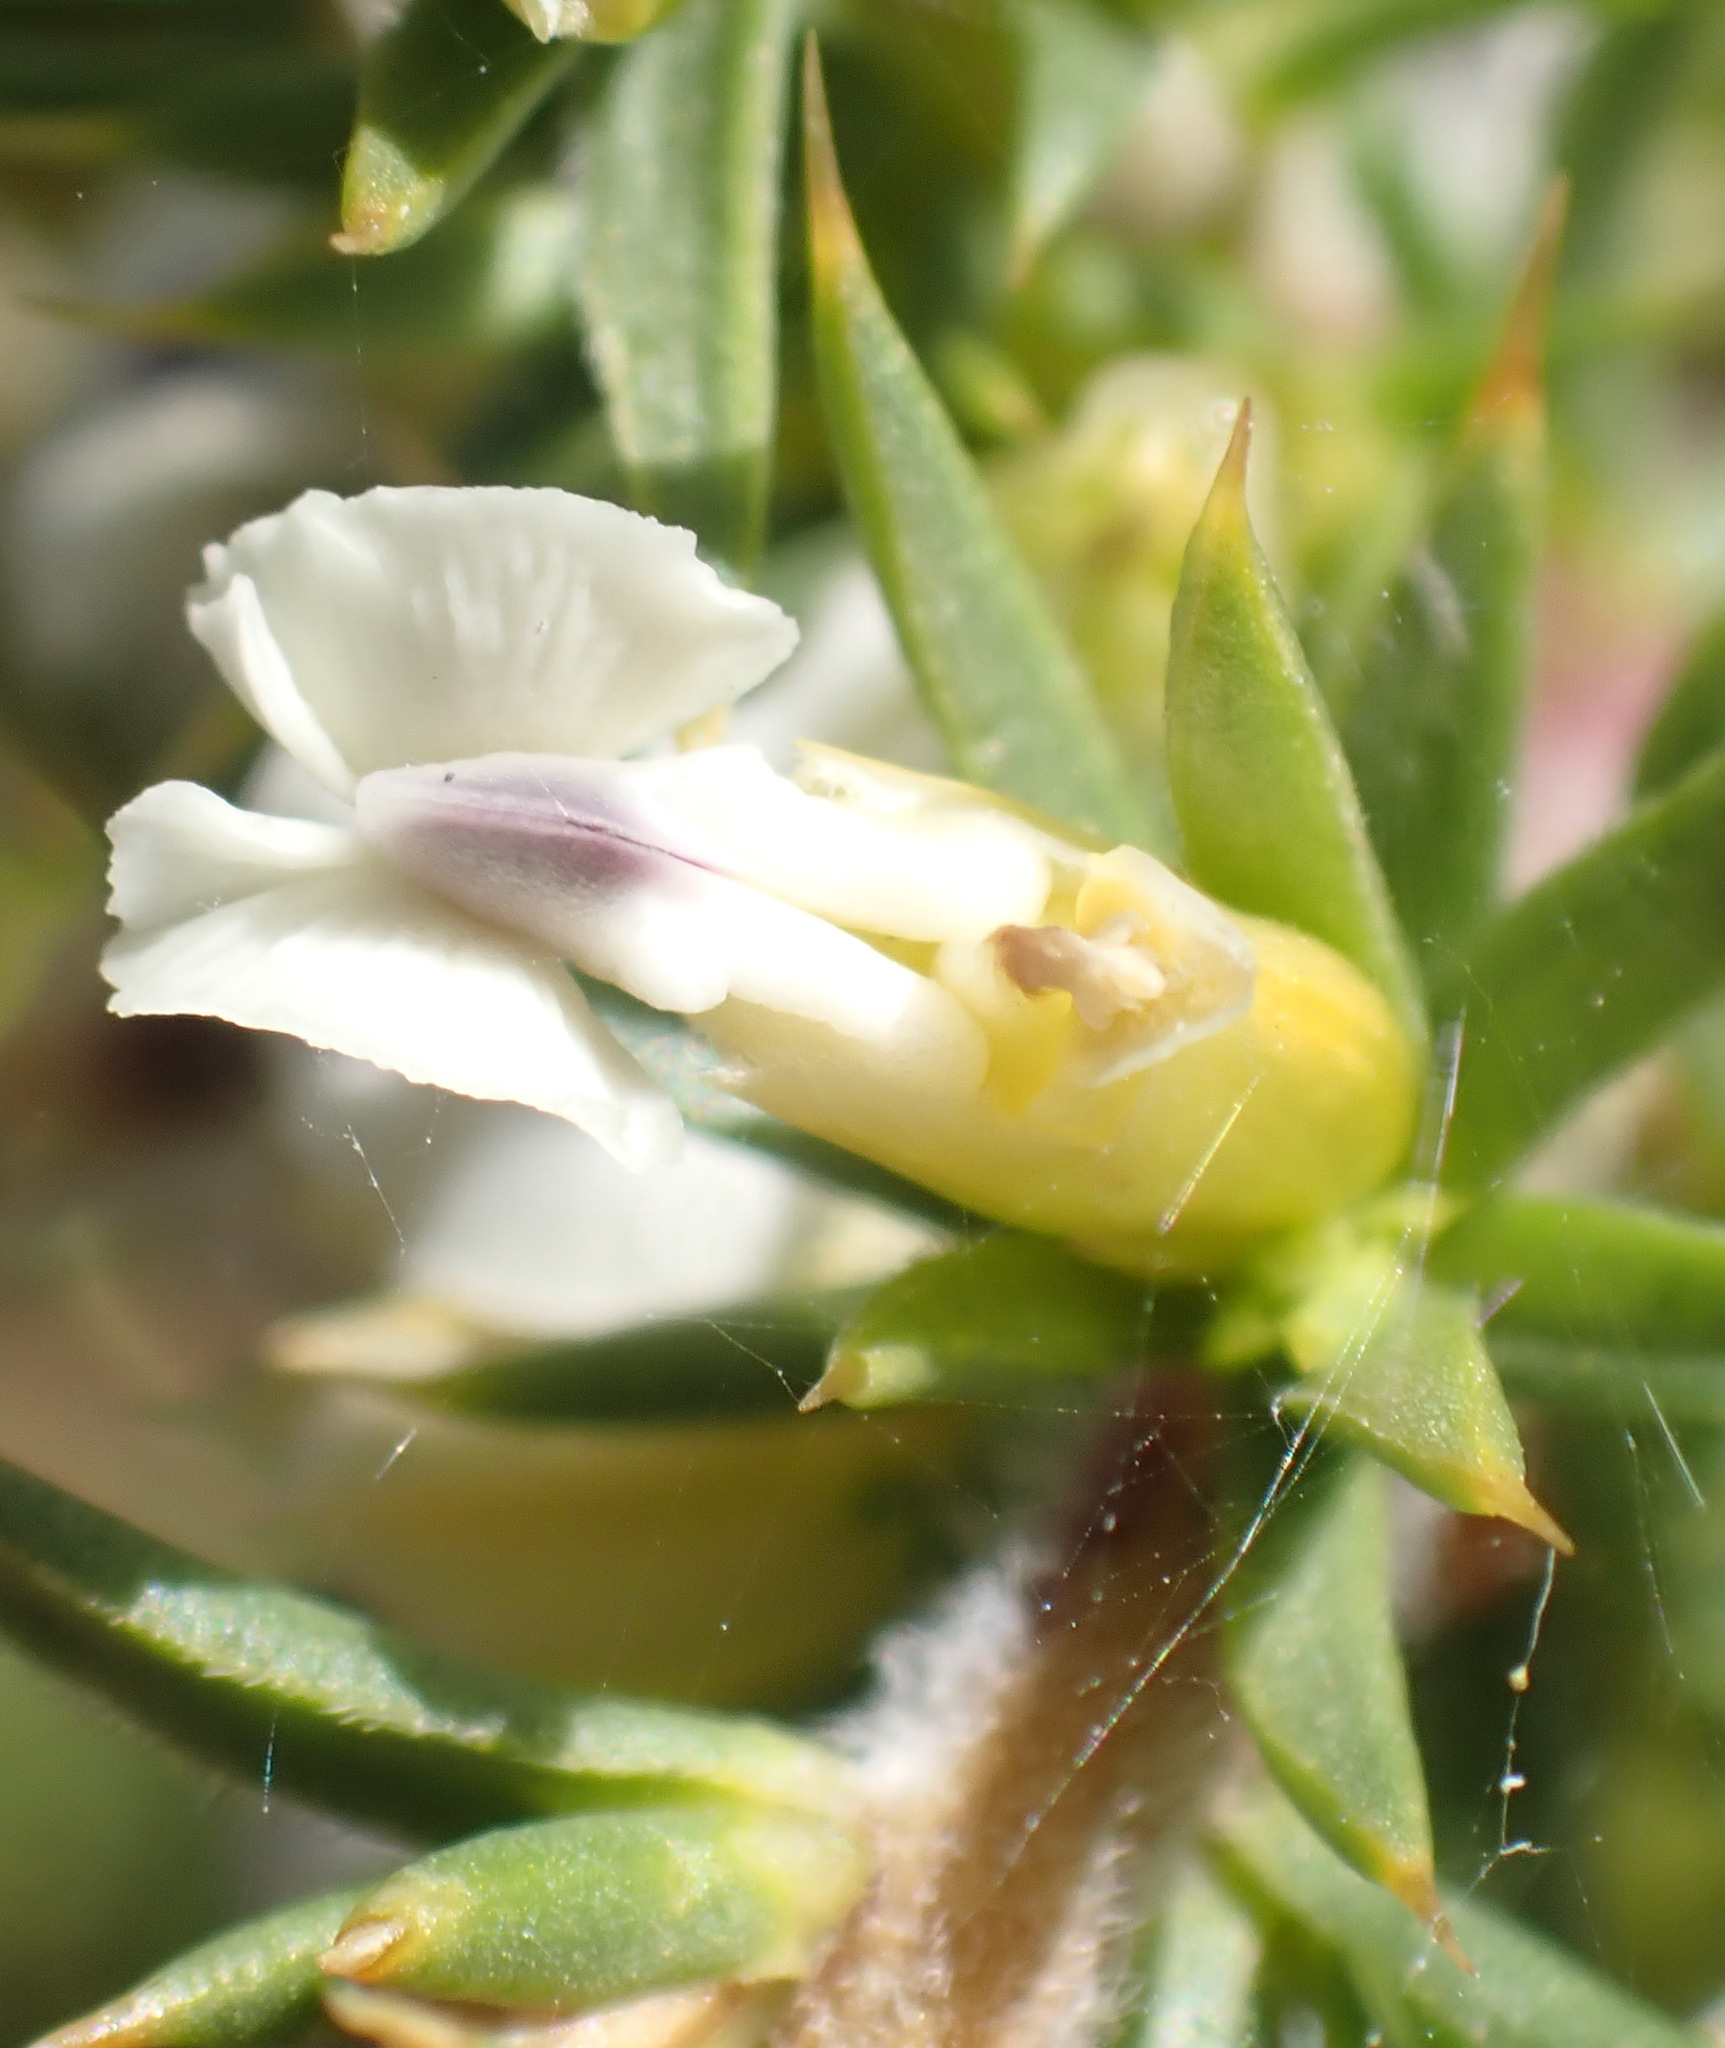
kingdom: Plantae
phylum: Tracheophyta
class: Magnoliopsida
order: Fabales
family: Polygalaceae
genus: Muraltia
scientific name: Muraltia ericifolia
